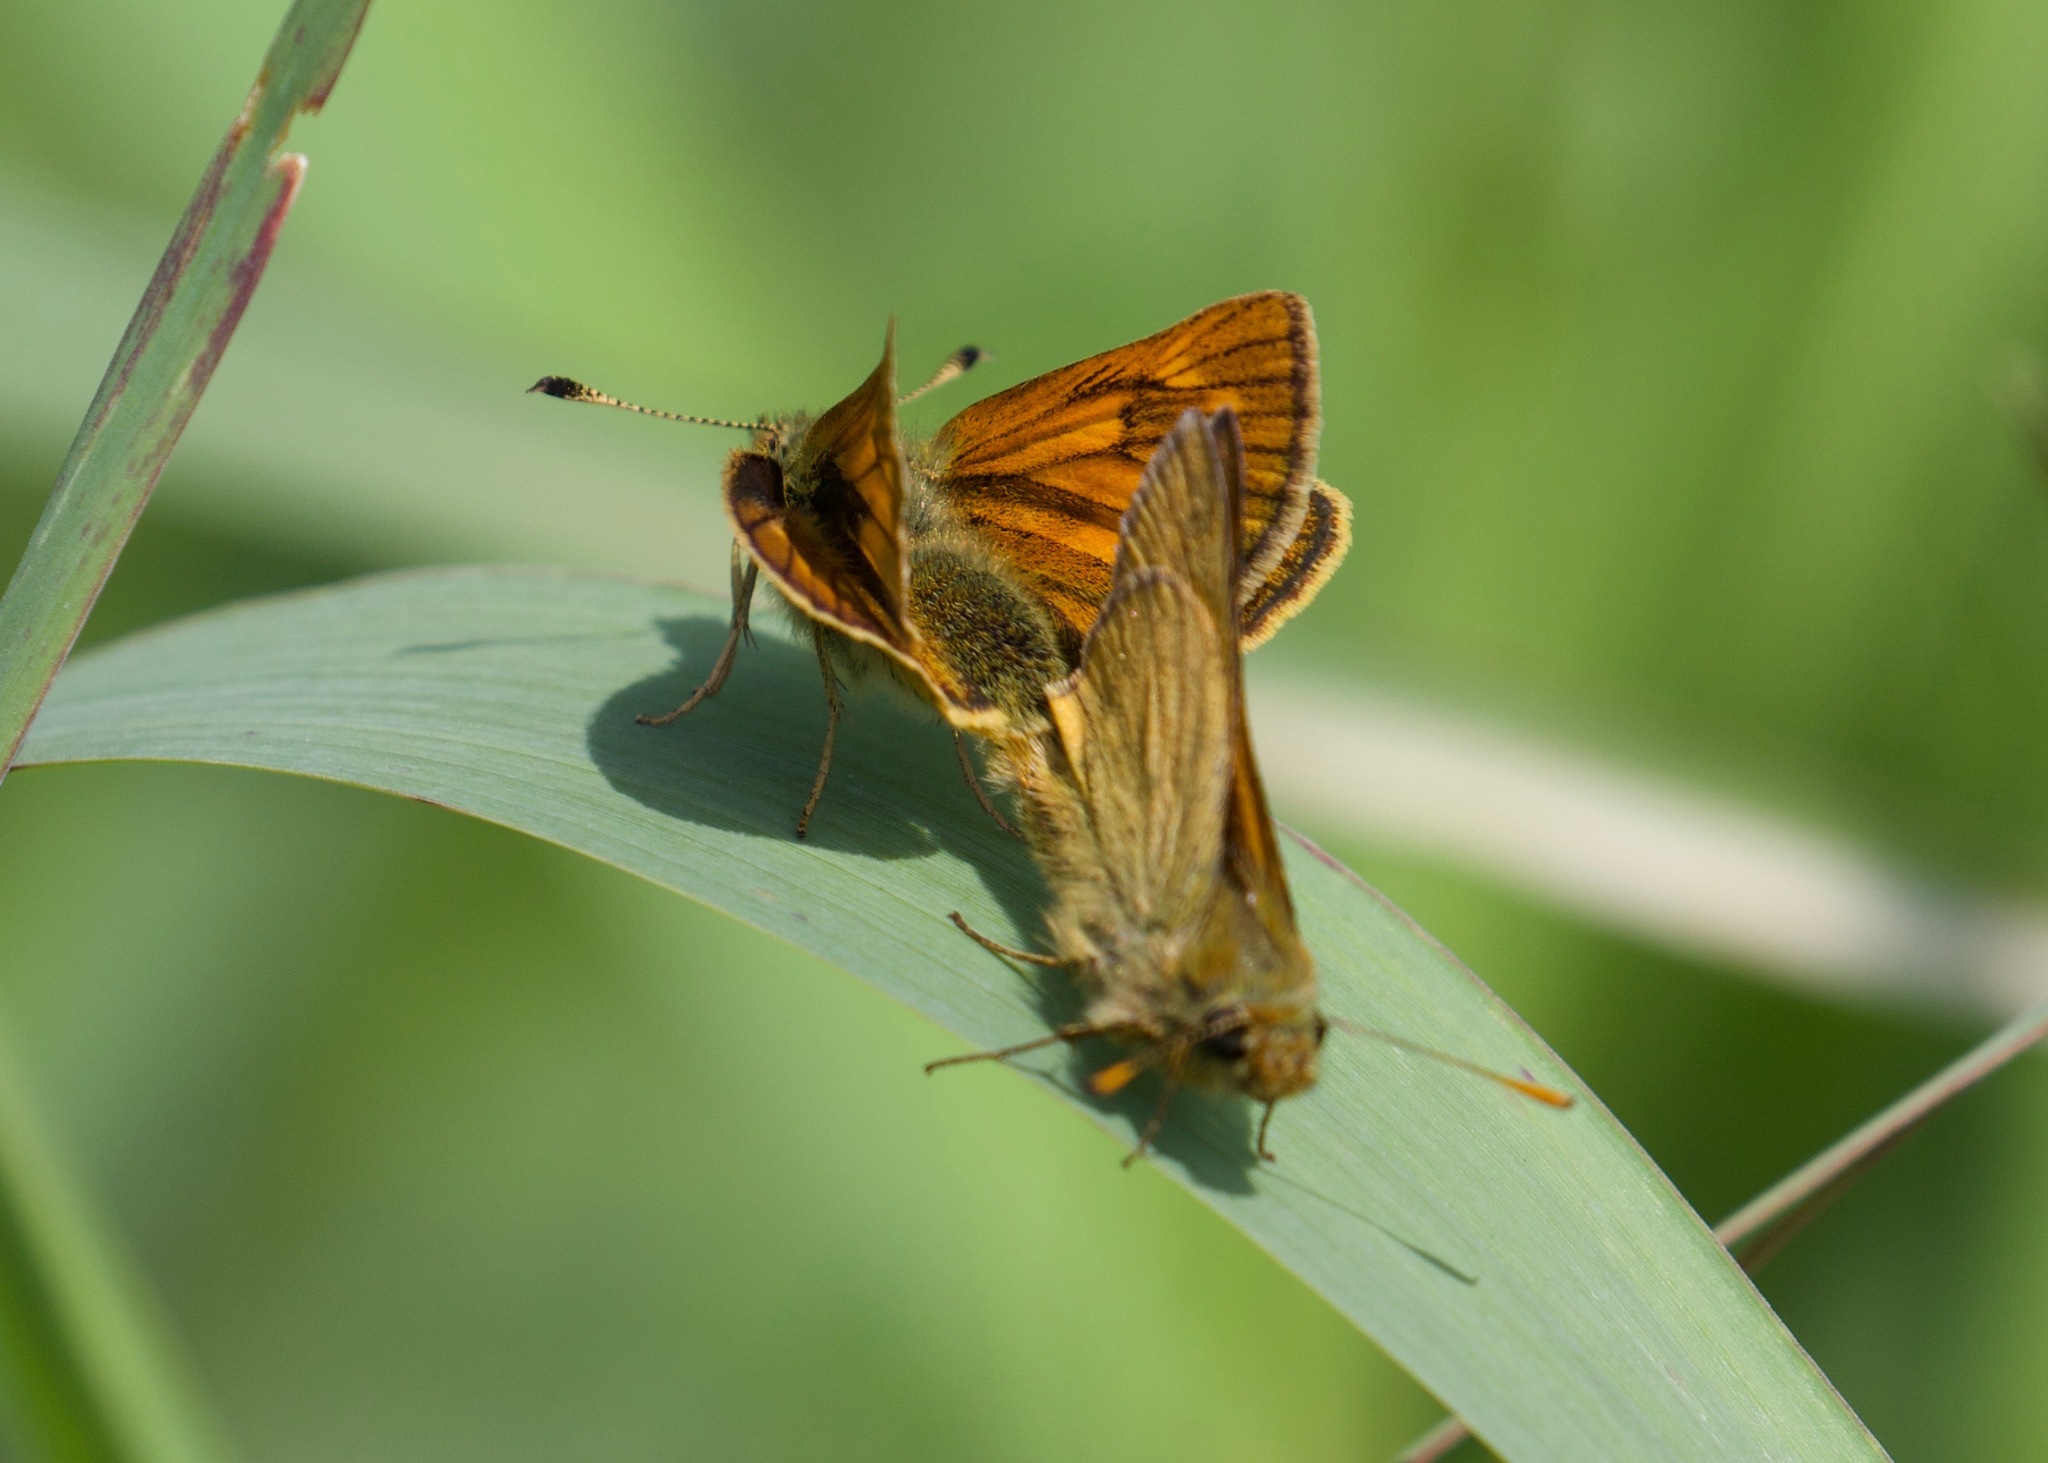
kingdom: Animalia
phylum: Arthropoda
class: Insecta
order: Lepidoptera
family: Hesperiidae
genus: Ochlodes
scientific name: Ochlodes venata
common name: Large skipper
